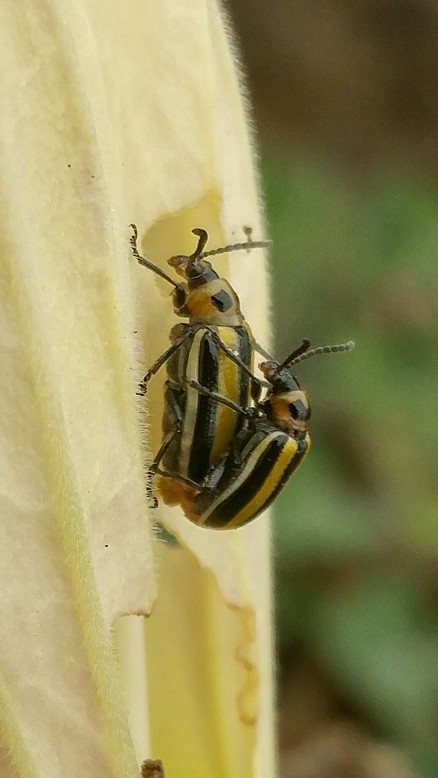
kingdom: Animalia
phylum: Arthropoda
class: Insecta
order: Coleoptera
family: Chrysomelidae
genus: Lema
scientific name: Lema daturaphila
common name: Leaf beetle
